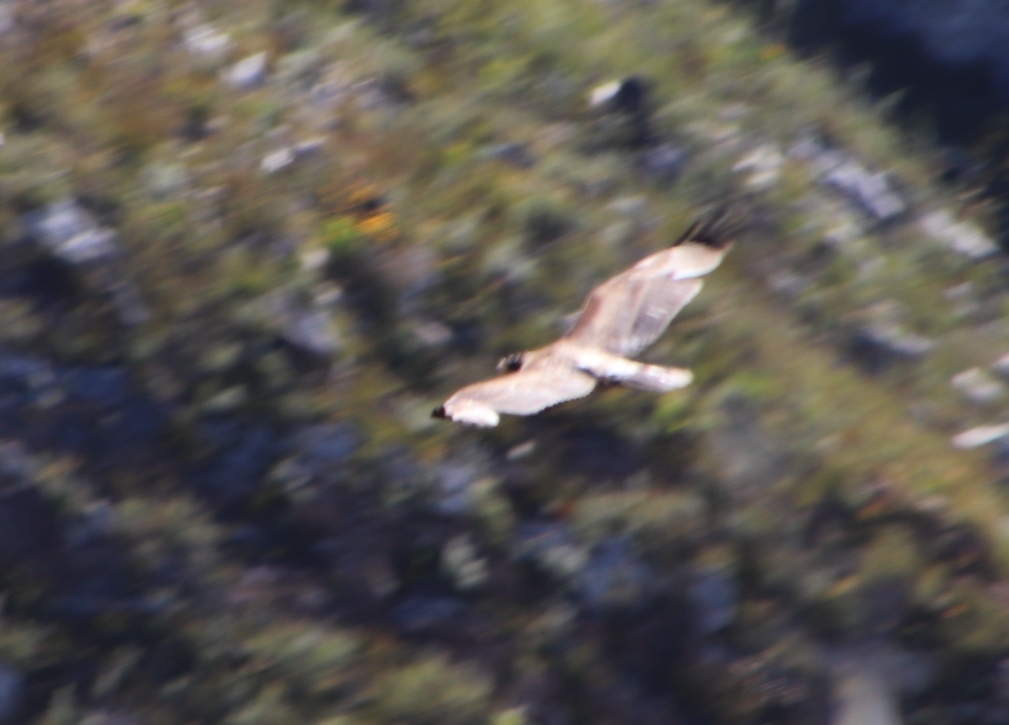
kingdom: Animalia
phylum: Chordata
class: Aves
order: Accipitriformes
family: Accipitridae
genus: Aquila
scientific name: Aquila verreauxii
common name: Verreaux's eagle
